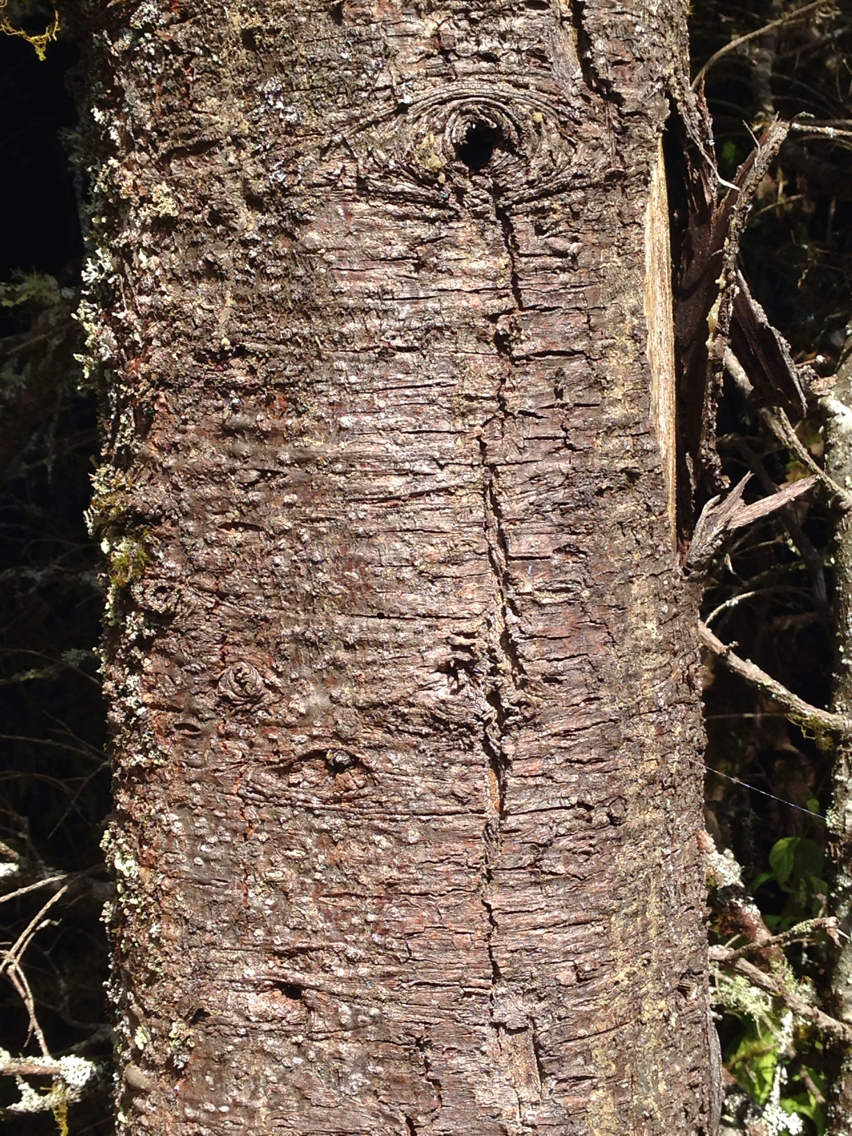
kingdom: Plantae
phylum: Tracheophyta
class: Pinopsida
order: Pinales
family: Pinaceae
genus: Abies
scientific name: Abies fraseri
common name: Fraser fir
